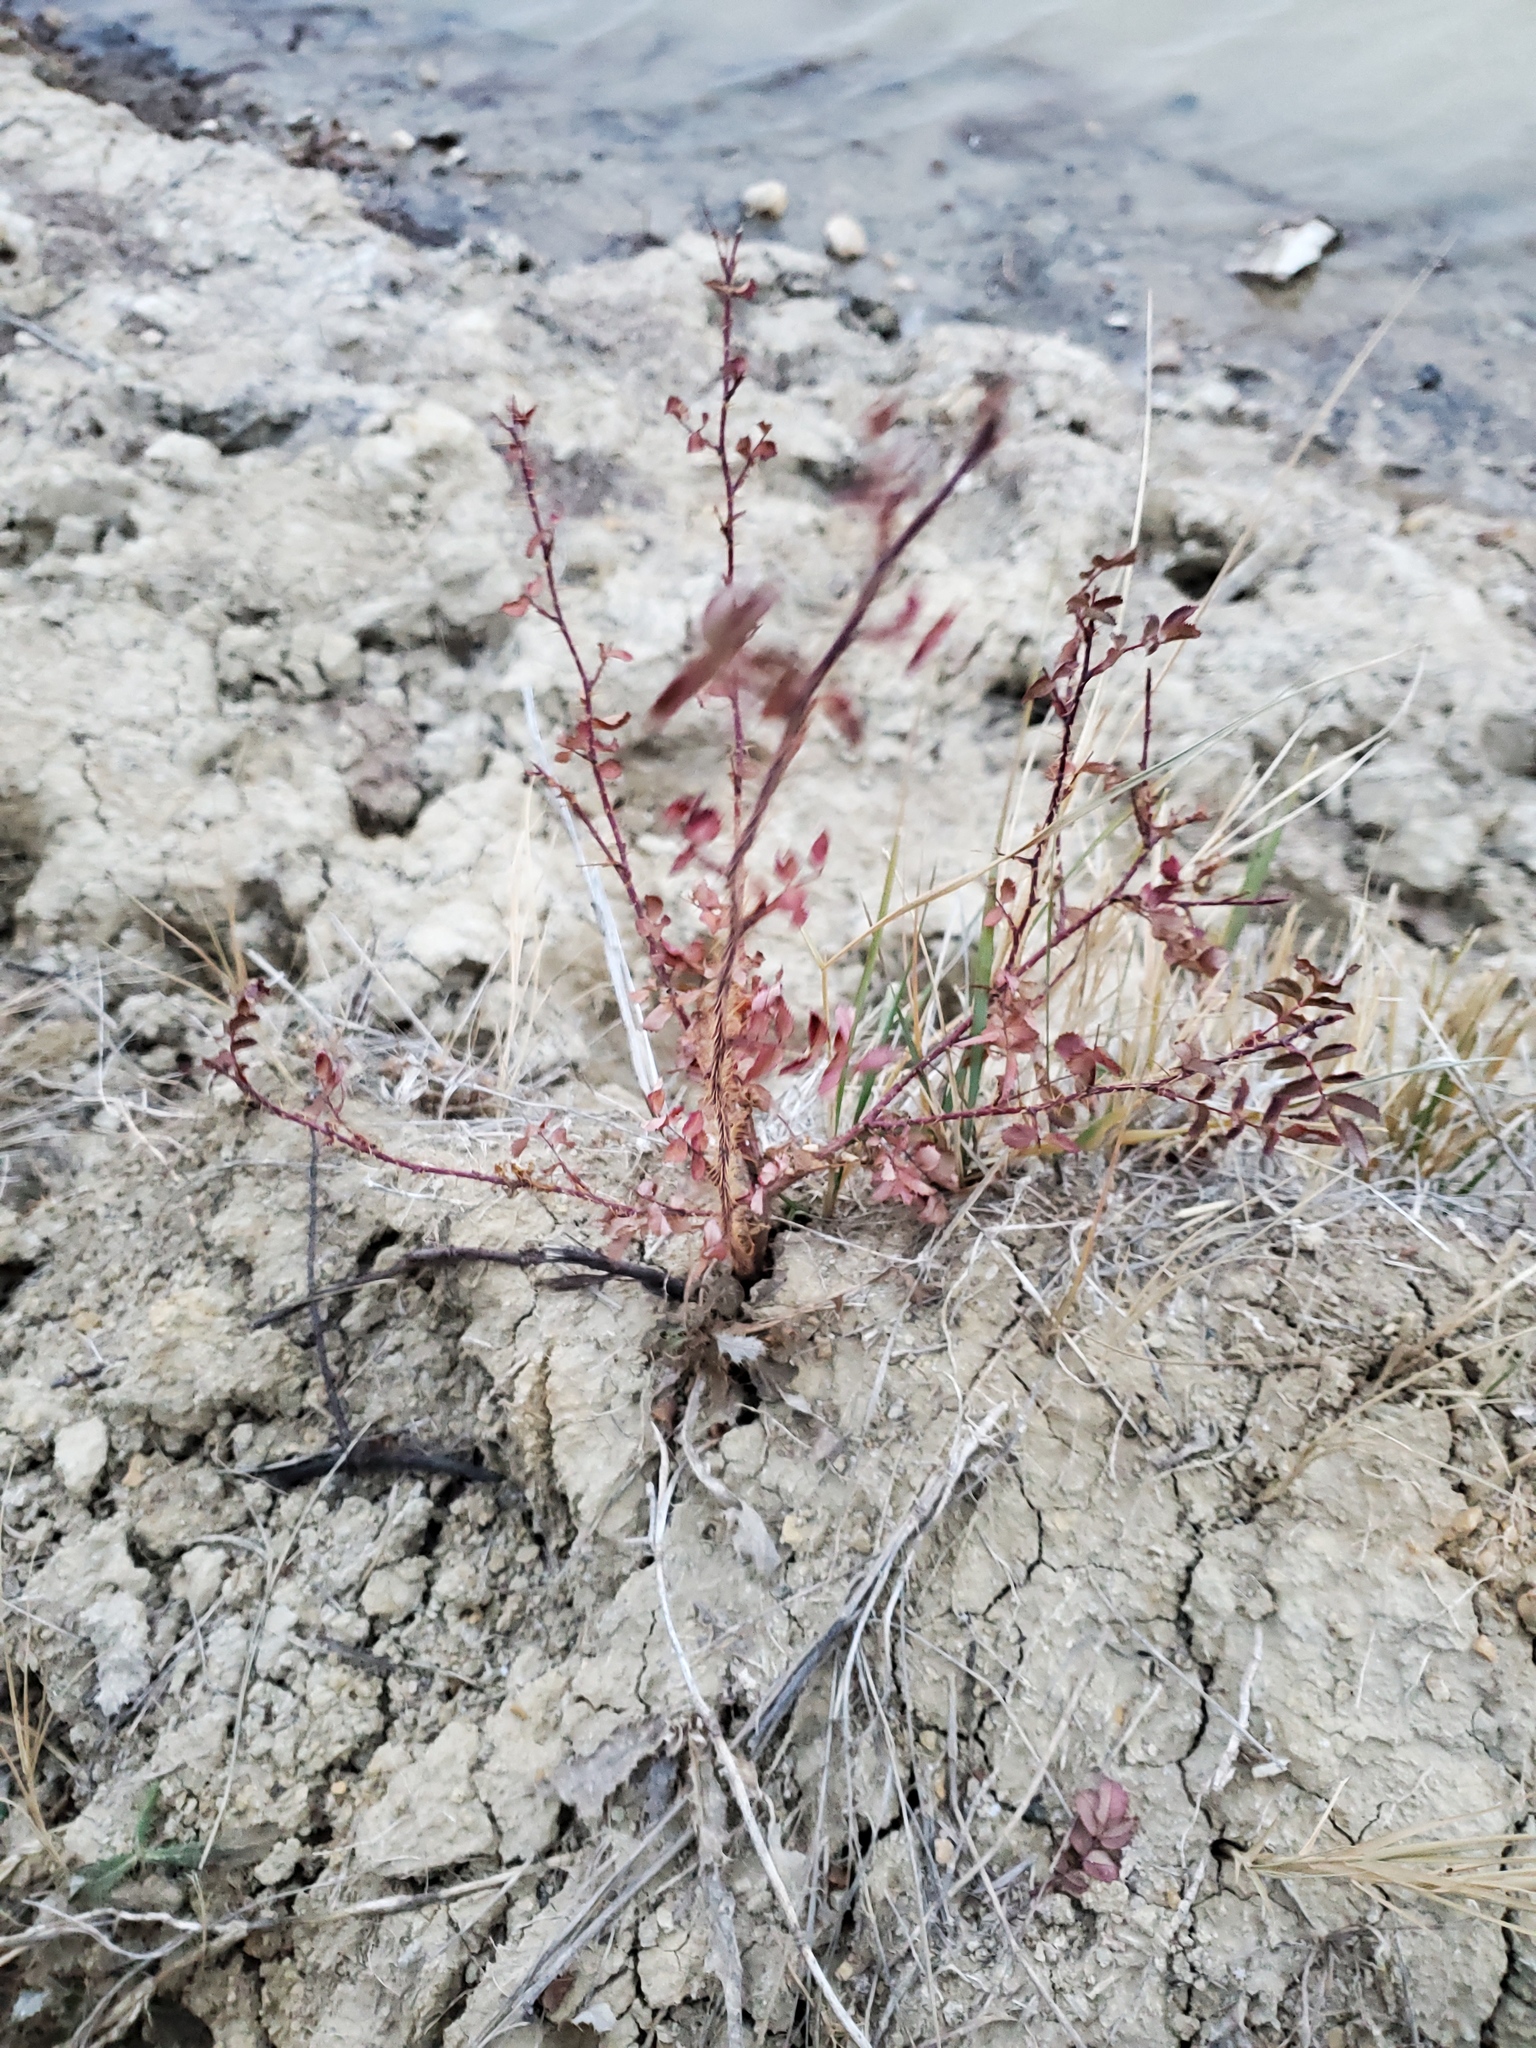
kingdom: Plantae
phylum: Tracheophyta
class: Magnoliopsida
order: Rosales
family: Rosaceae
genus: Rosa
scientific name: Rosa woodsii
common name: Woods's rose
